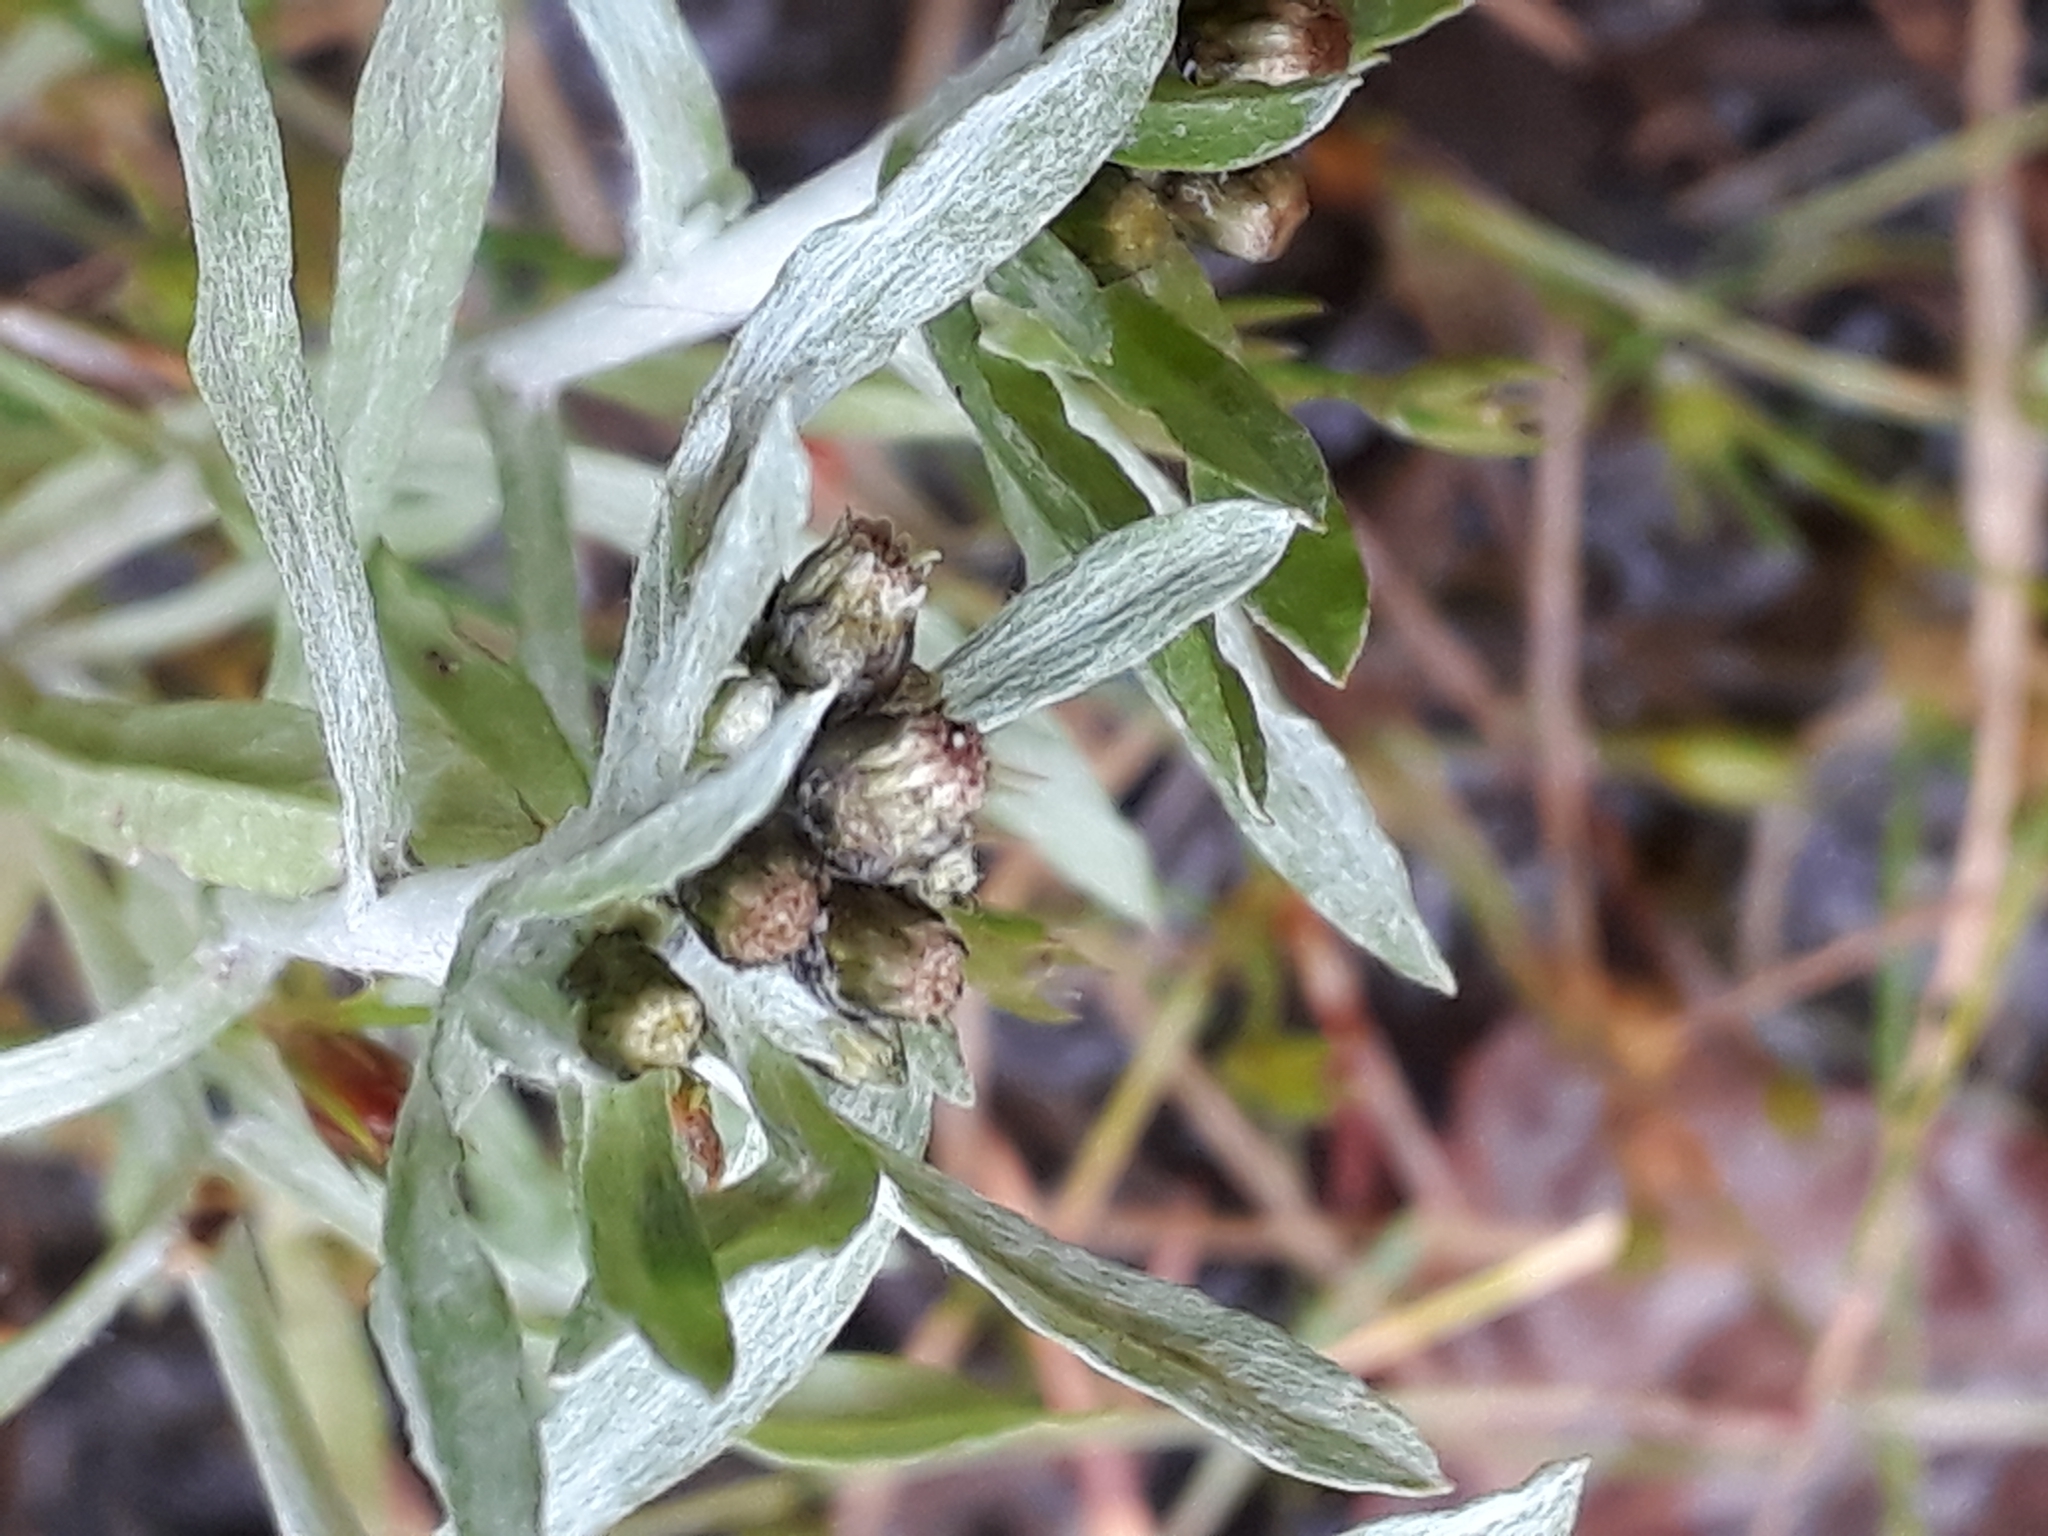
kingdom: Plantae
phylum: Tracheophyta
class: Magnoliopsida
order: Asterales
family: Asteraceae
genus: Gnaphalium
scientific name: Gnaphalium uliginosum
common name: Marsh cudweed
